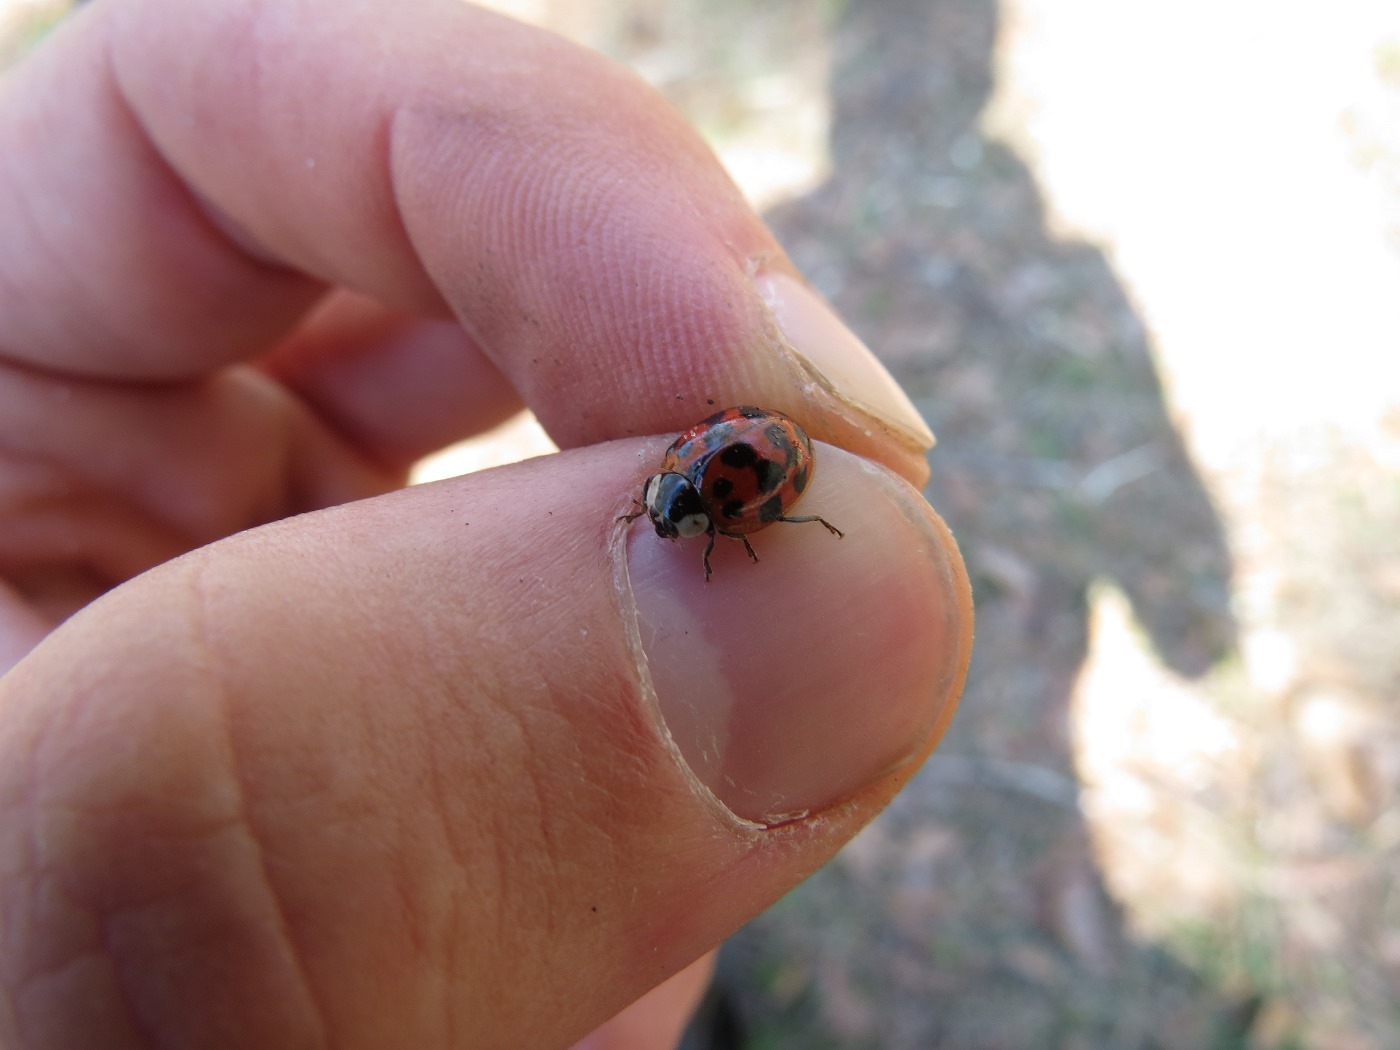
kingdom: Animalia
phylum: Arthropoda
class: Insecta
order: Coleoptera
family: Coccinellidae
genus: Harmonia
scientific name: Harmonia axyridis
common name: Harlequin ladybird
